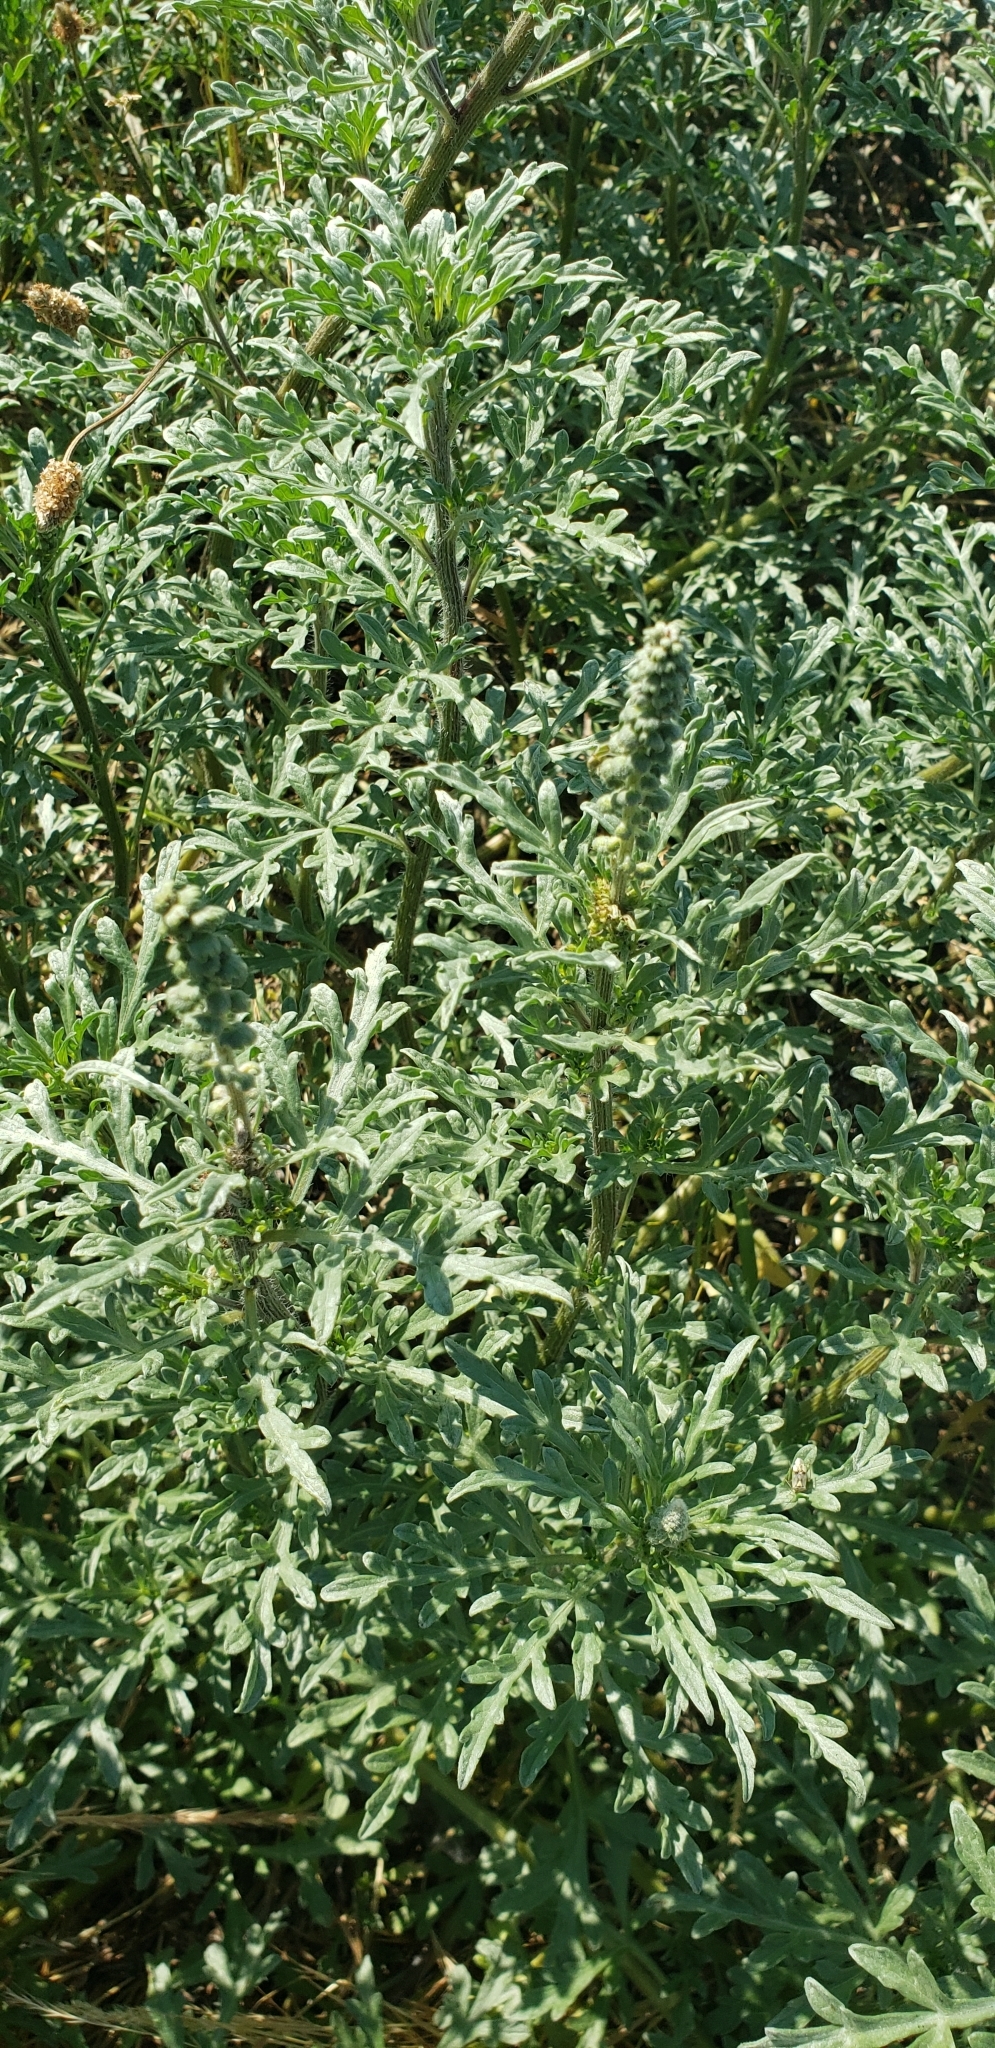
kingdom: Plantae
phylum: Tracheophyta
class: Magnoliopsida
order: Asterales
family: Asteraceae
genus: Ambrosia
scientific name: Ambrosia chamissonis
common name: Beachbur
